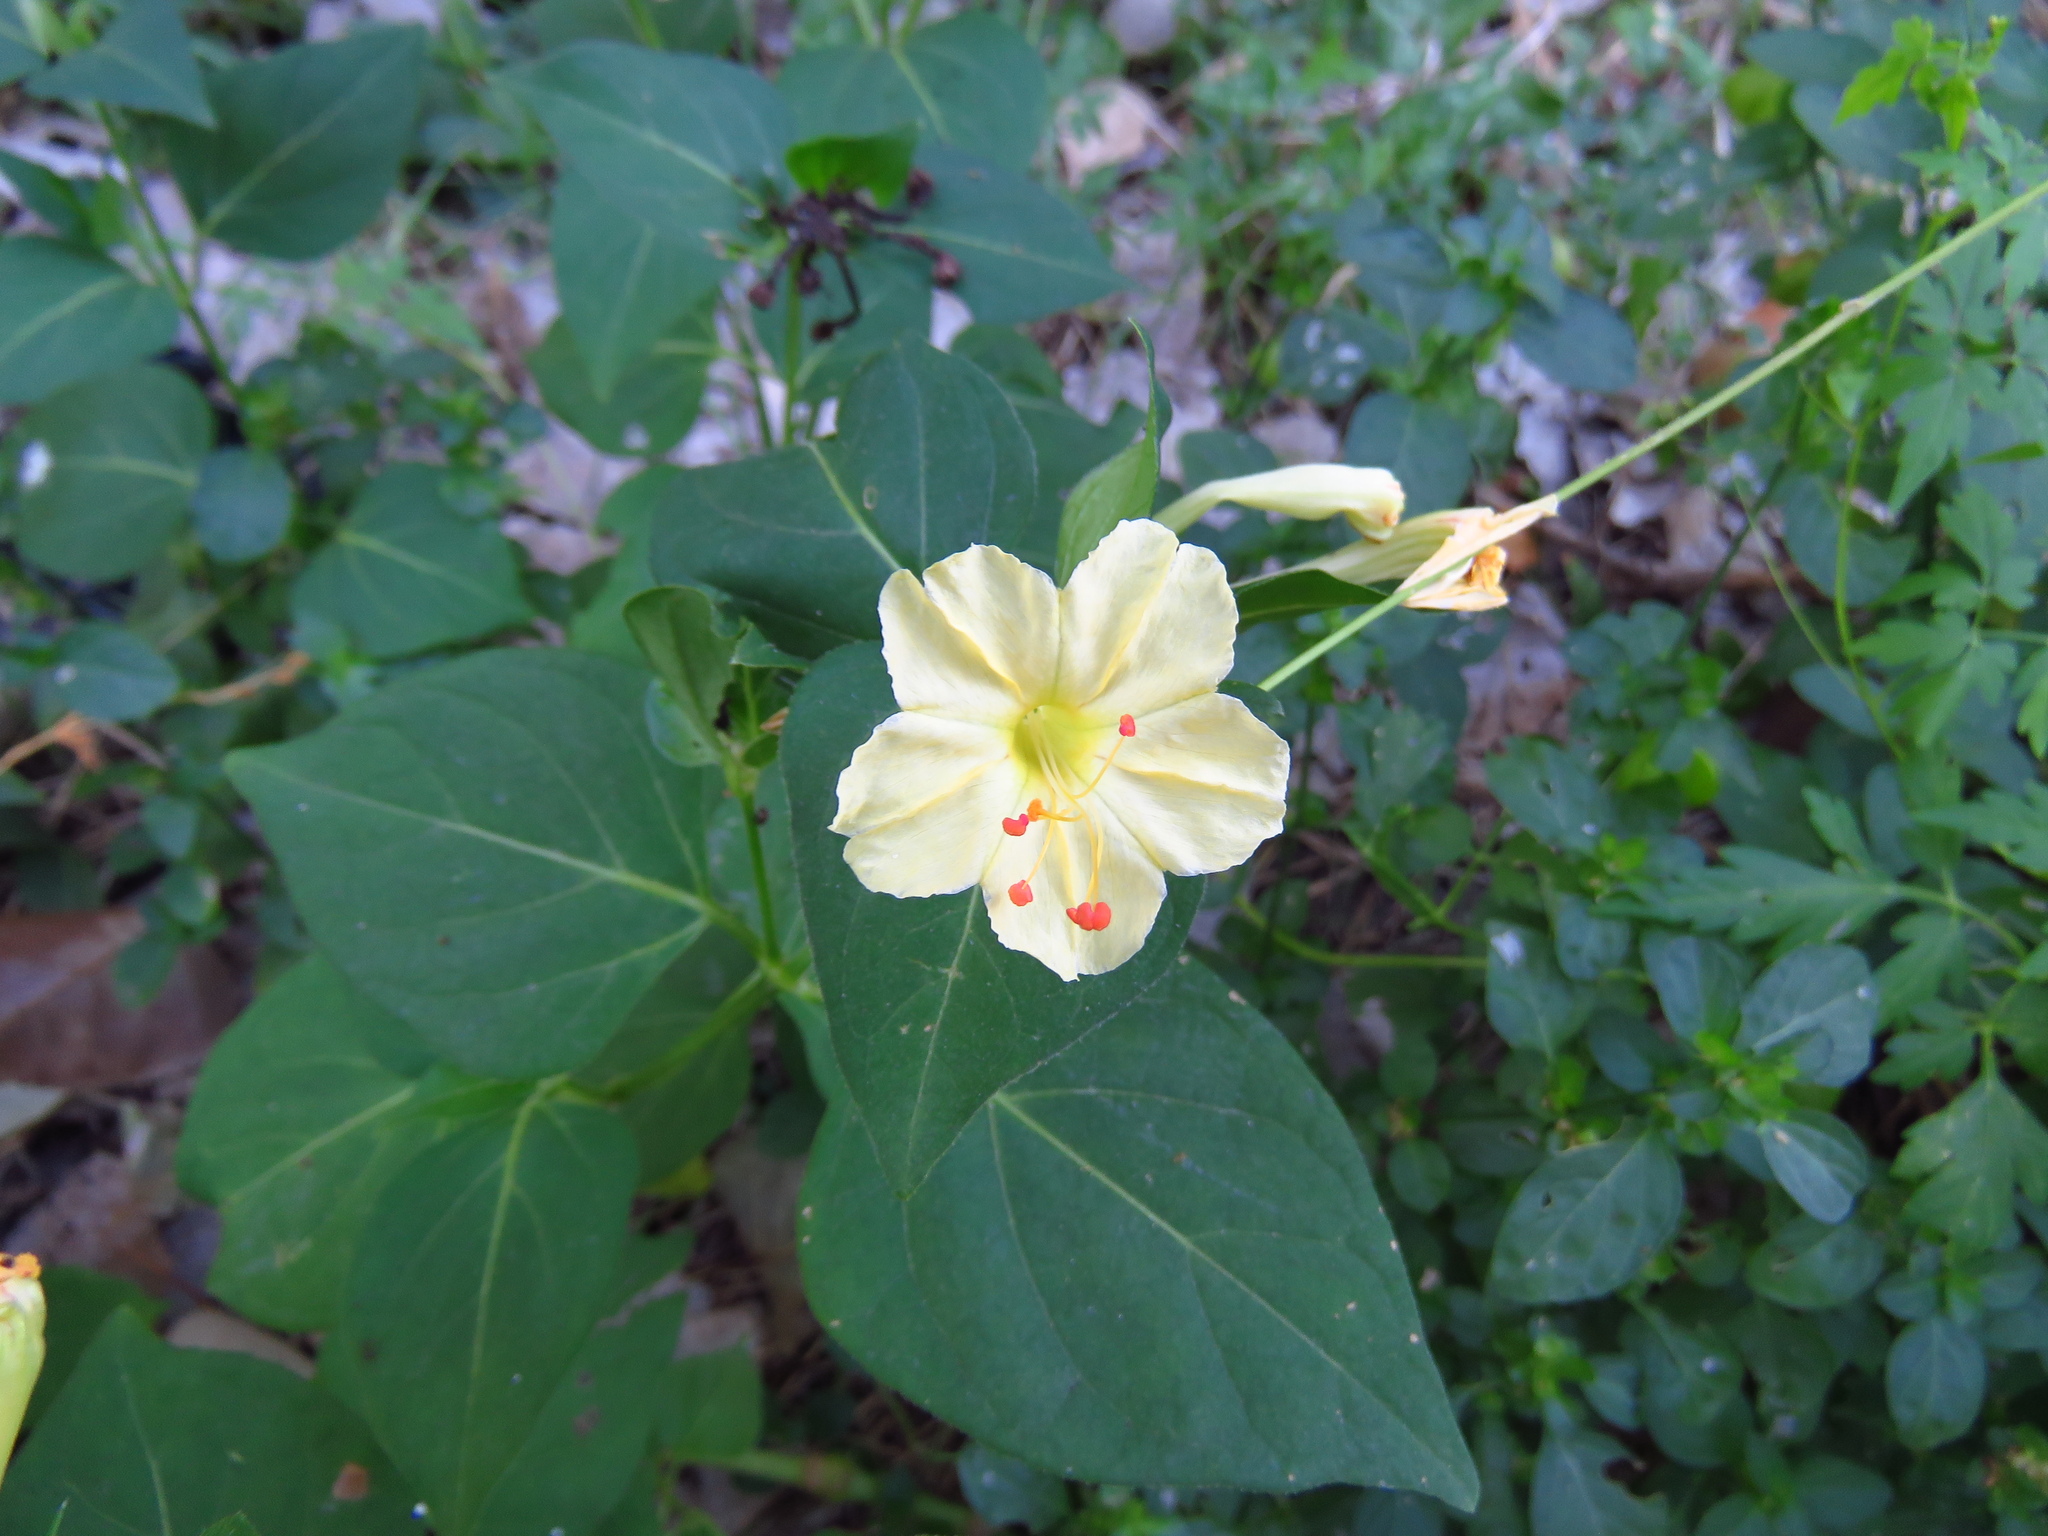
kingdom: Plantae
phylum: Tracheophyta
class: Magnoliopsida
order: Caryophyllales
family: Nyctaginaceae
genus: Mirabilis
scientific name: Mirabilis jalapa
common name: Marvel-of-peru
